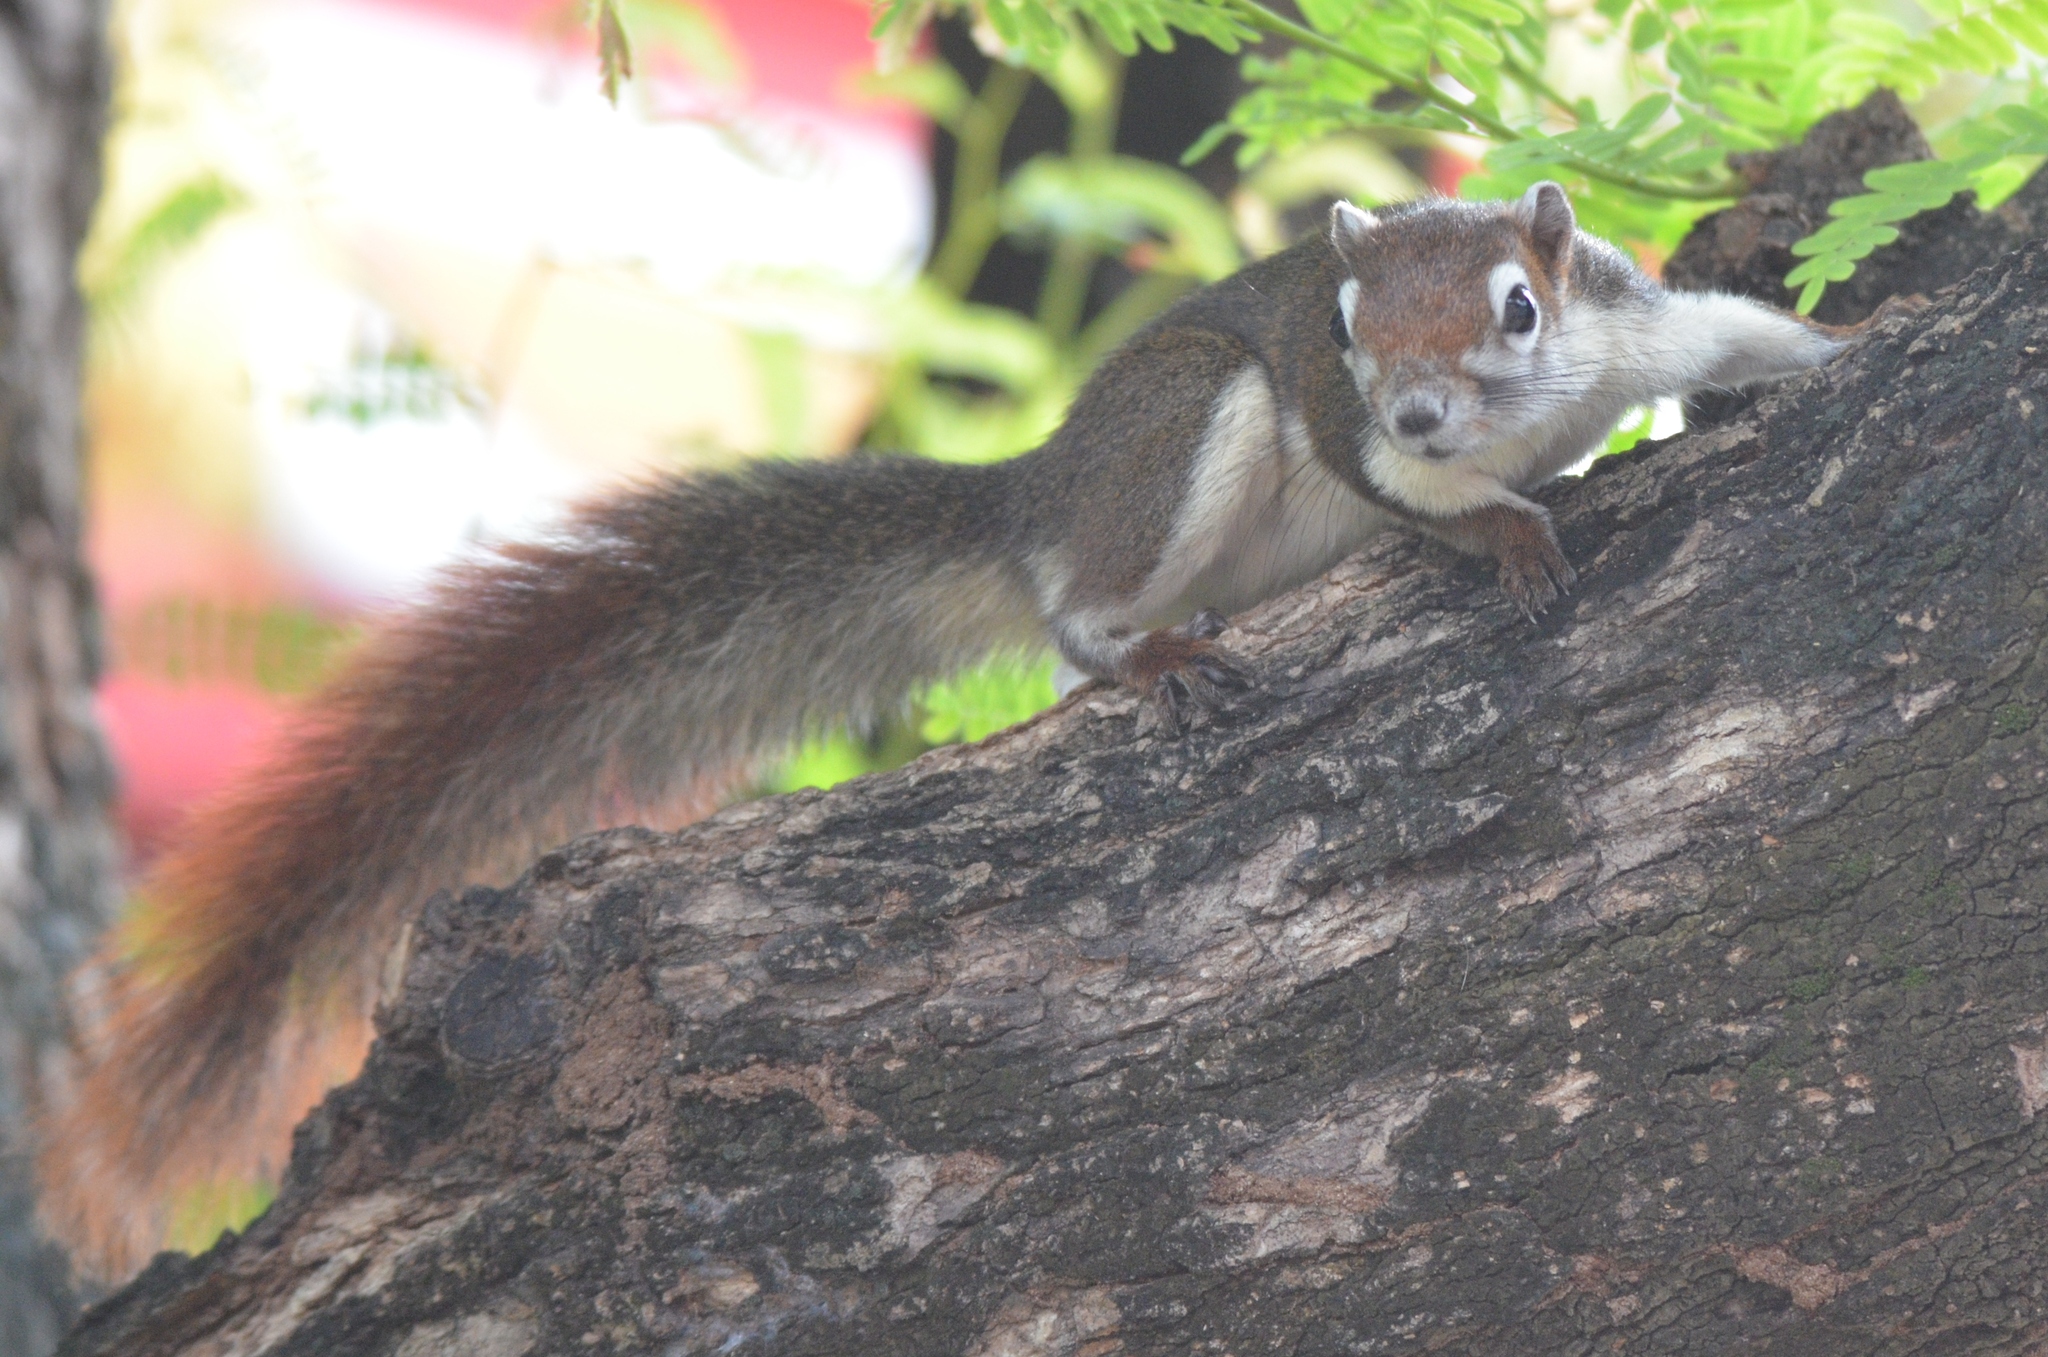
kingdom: Animalia
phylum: Chordata
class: Mammalia
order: Rodentia
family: Sciuridae
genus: Callosciurus
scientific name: Callosciurus finlaysonii
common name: Finlayson's squirrel
